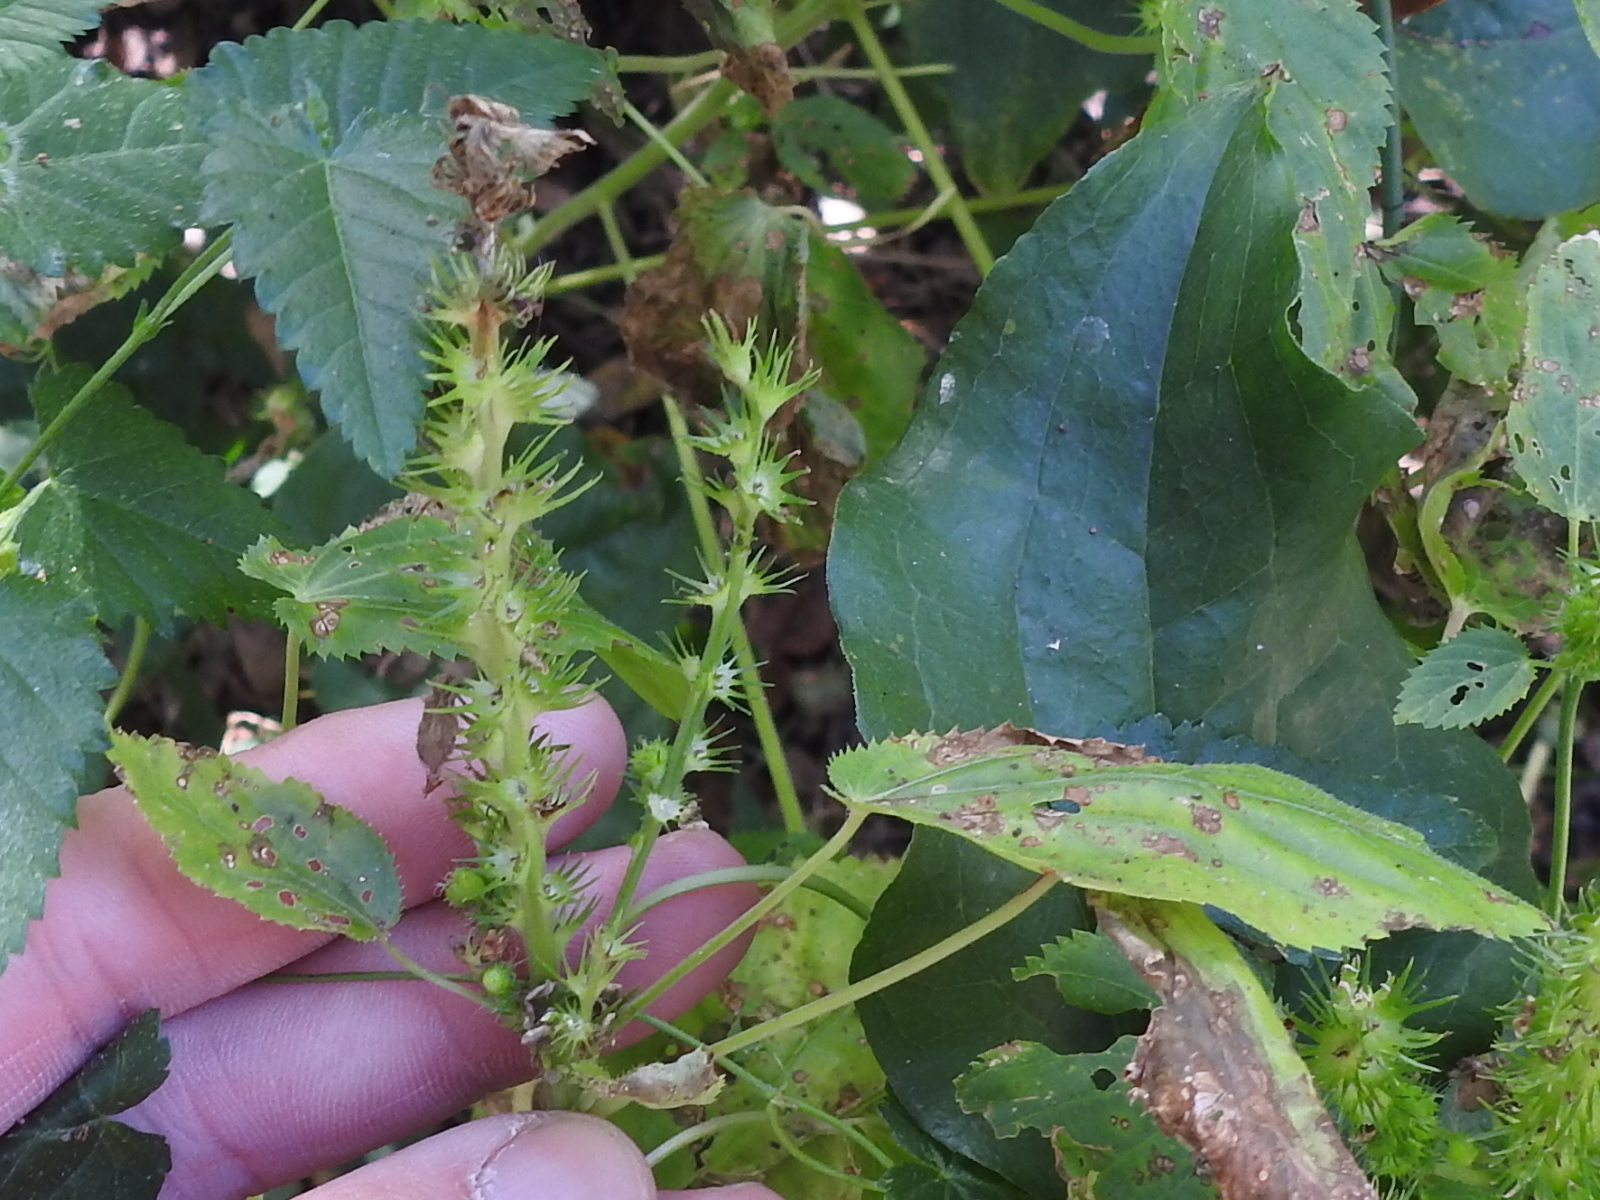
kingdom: Plantae
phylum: Tracheophyta
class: Magnoliopsida
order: Malpighiales
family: Euphorbiaceae
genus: Acalypha
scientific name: Acalypha ostryifolia
